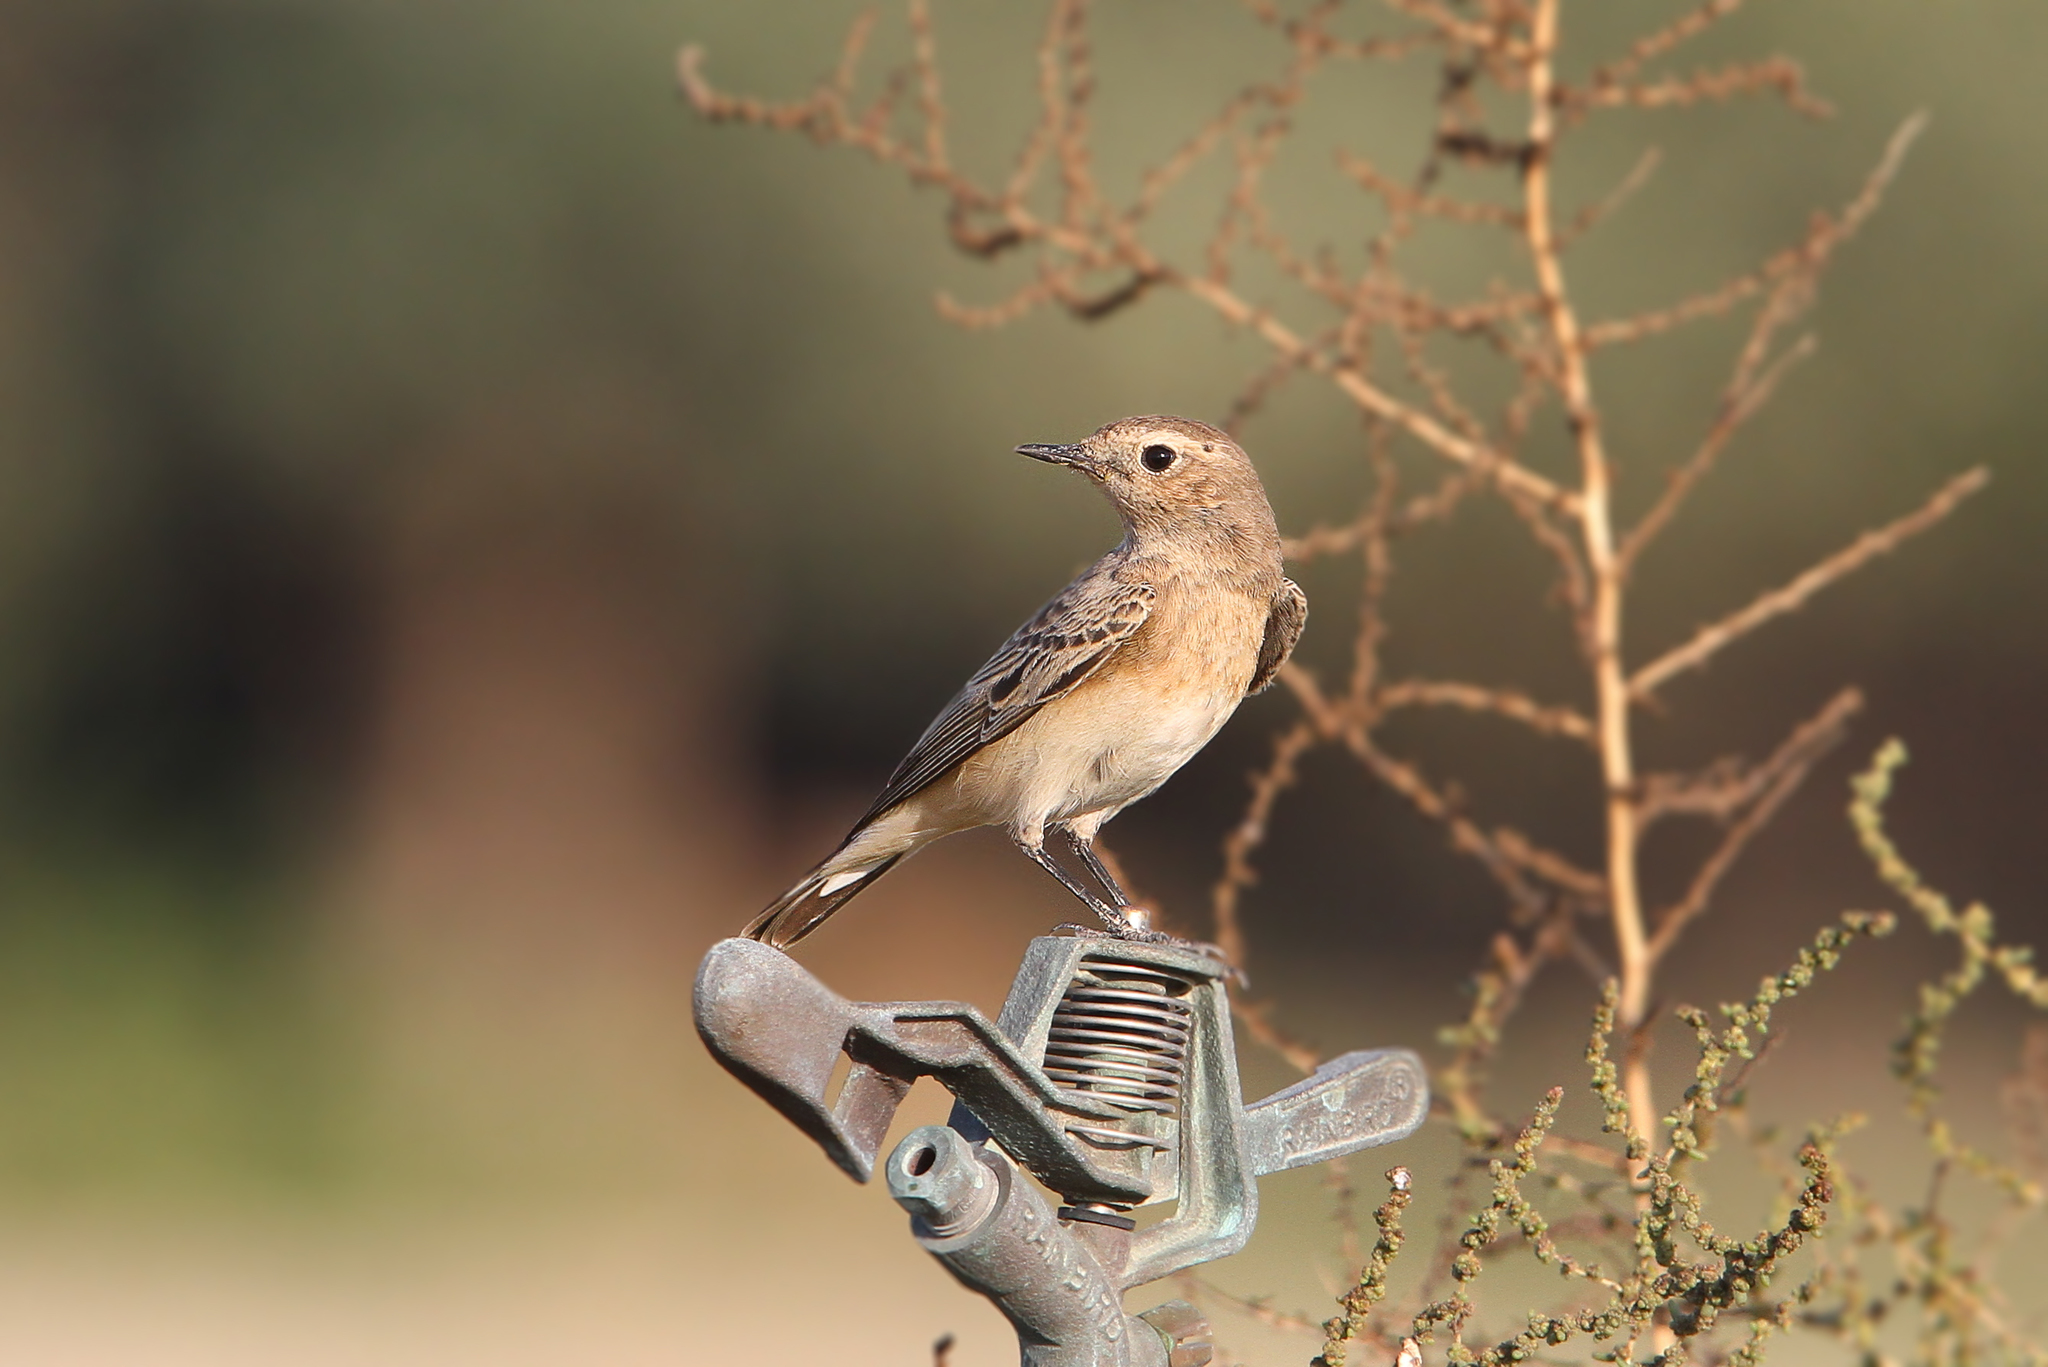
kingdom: Animalia
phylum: Chordata
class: Aves
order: Passeriformes
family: Muscicapidae
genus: Oenanthe
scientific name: Oenanthe pleschanka
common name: Pied wheatear
